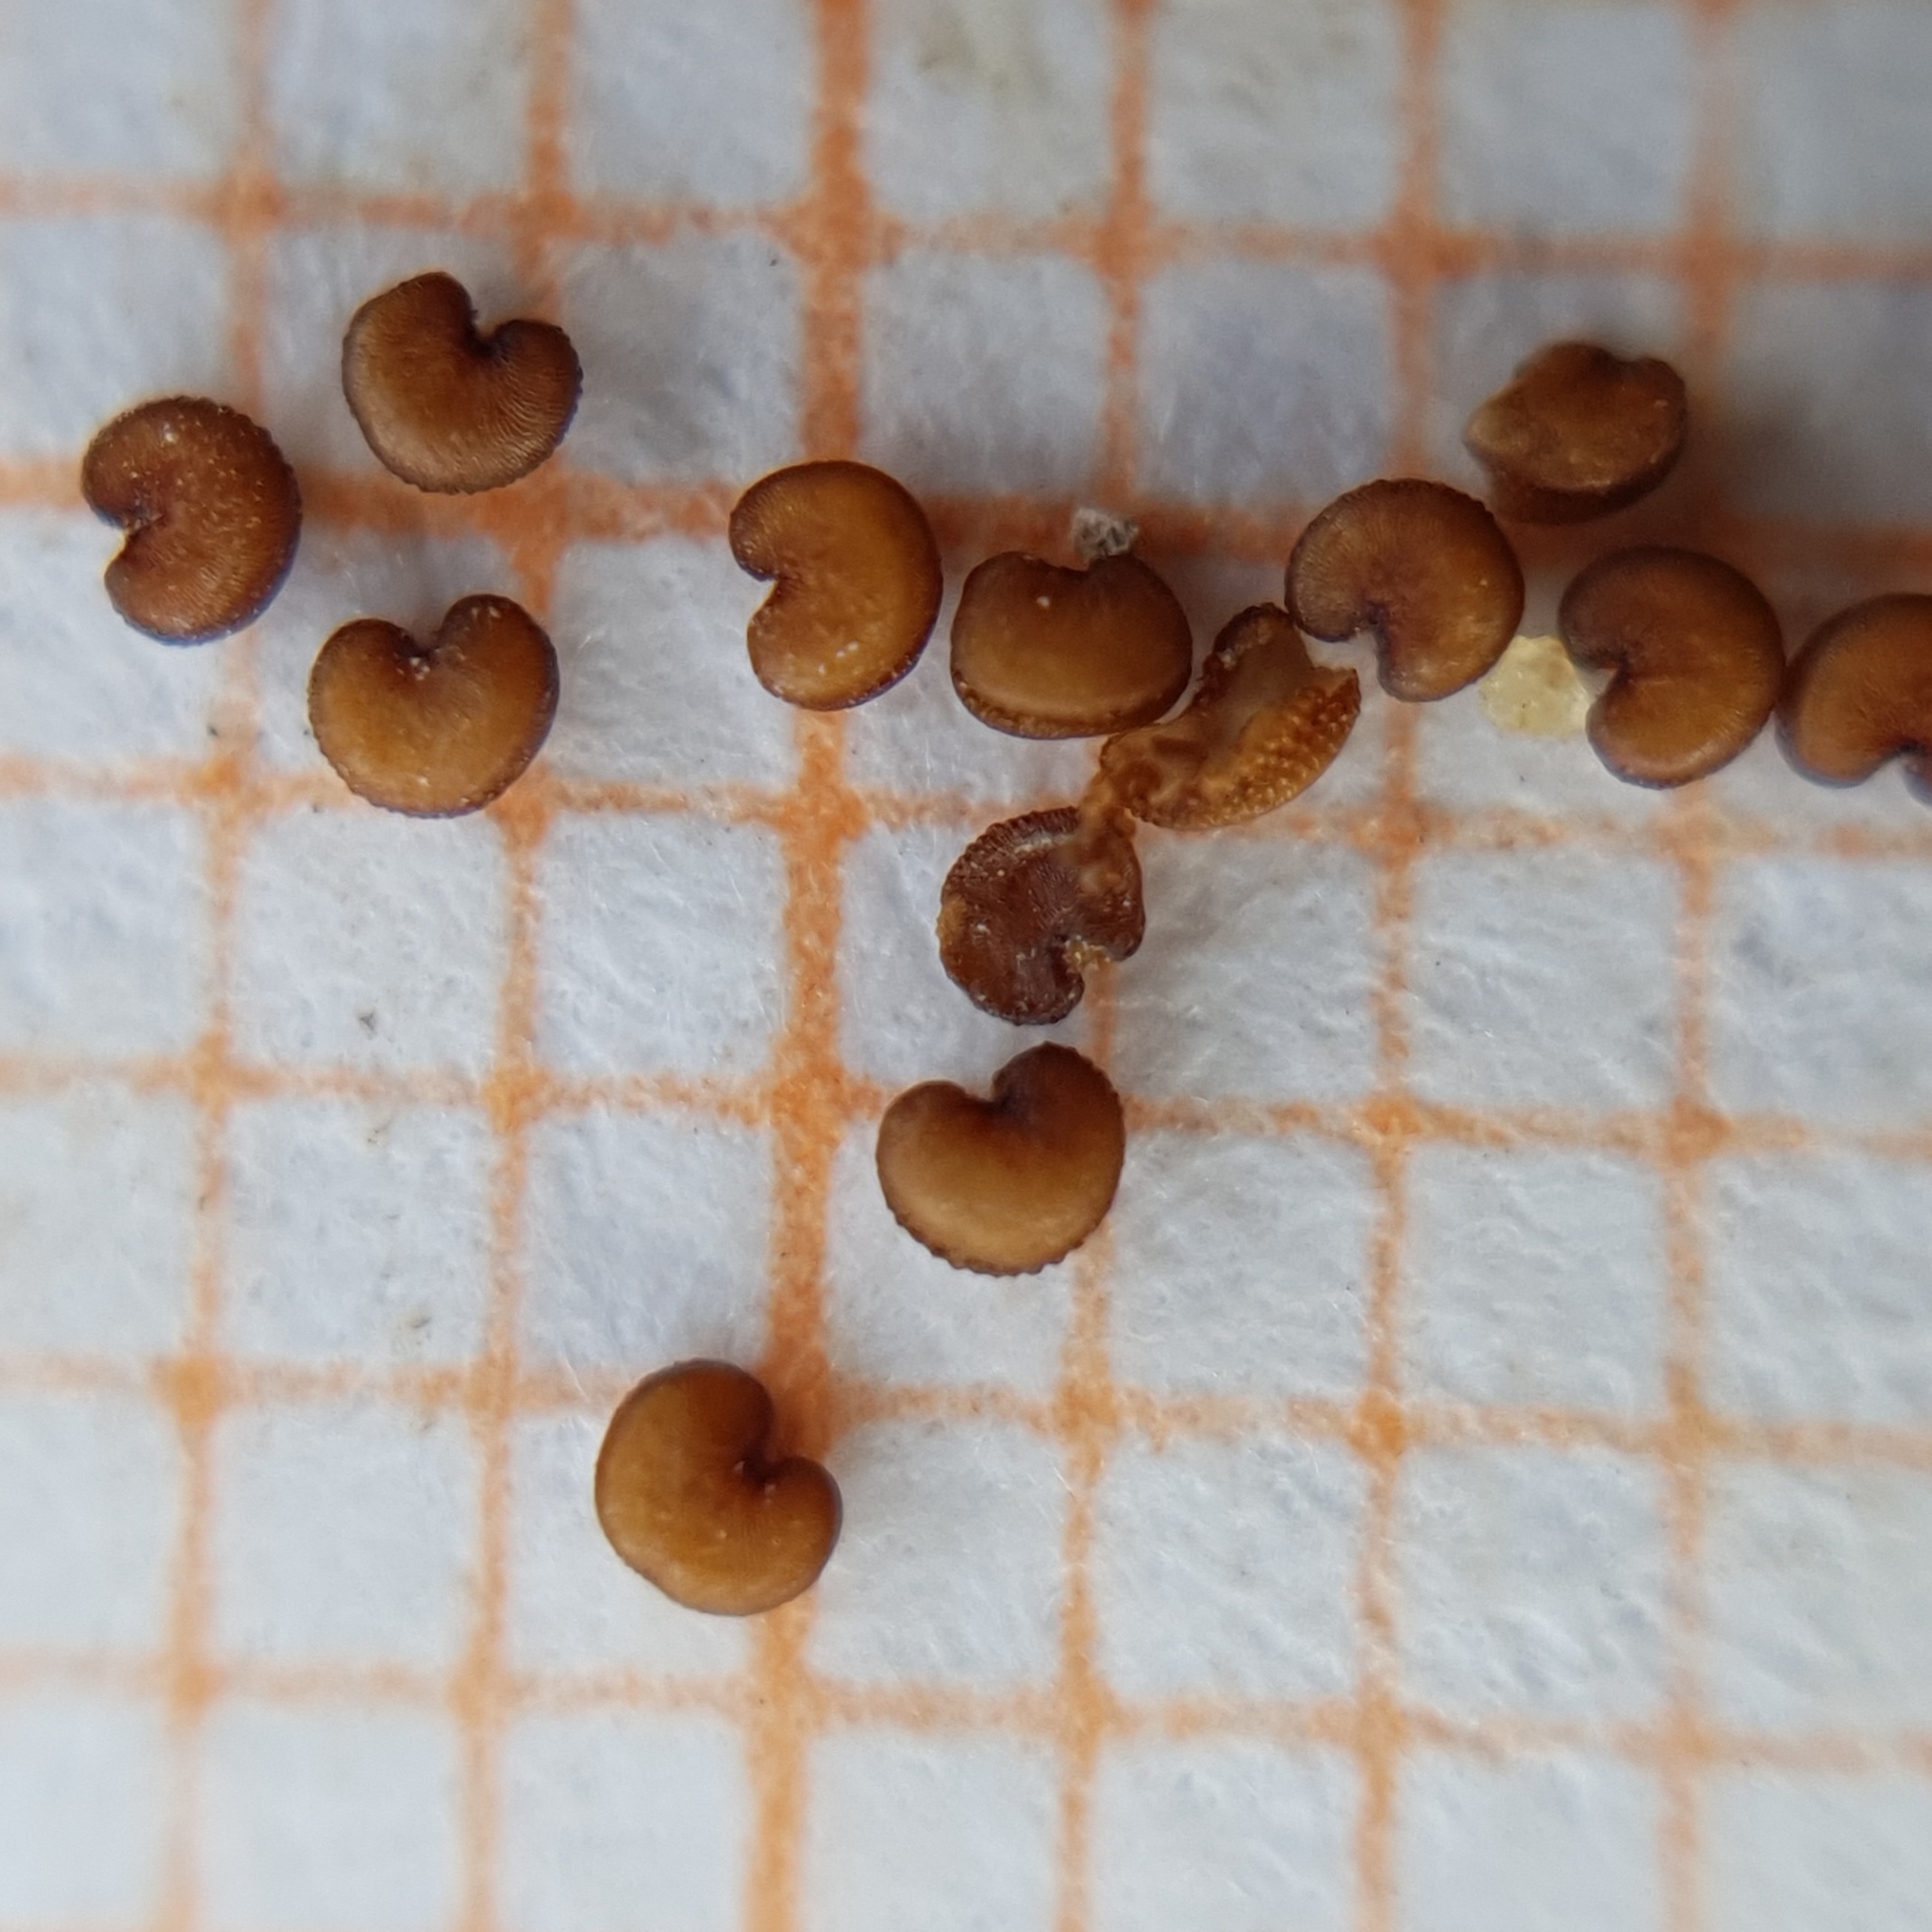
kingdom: Plantae
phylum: Tracheophyta
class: Magnoliopsida
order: Caryophyllales
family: Caryophyllaceae
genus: Silene
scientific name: Silene nicaeensis
